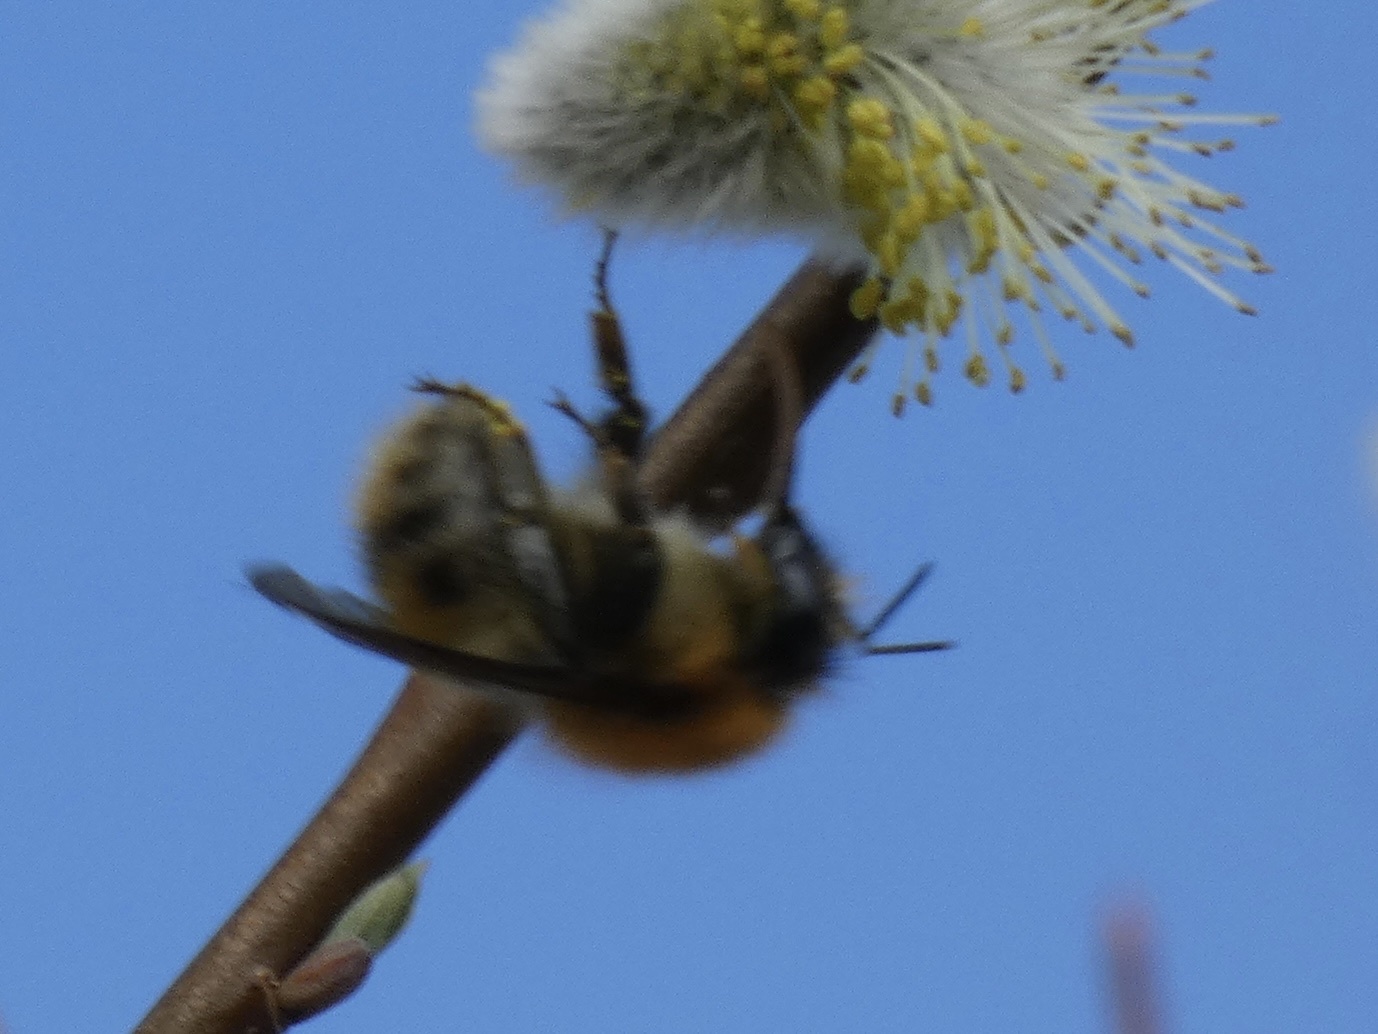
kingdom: Animalia
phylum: Arthropoda
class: Insecta
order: Hymenoptera
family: Apidae
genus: Bombus
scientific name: Bombus pascuorum
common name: Common carder bee
